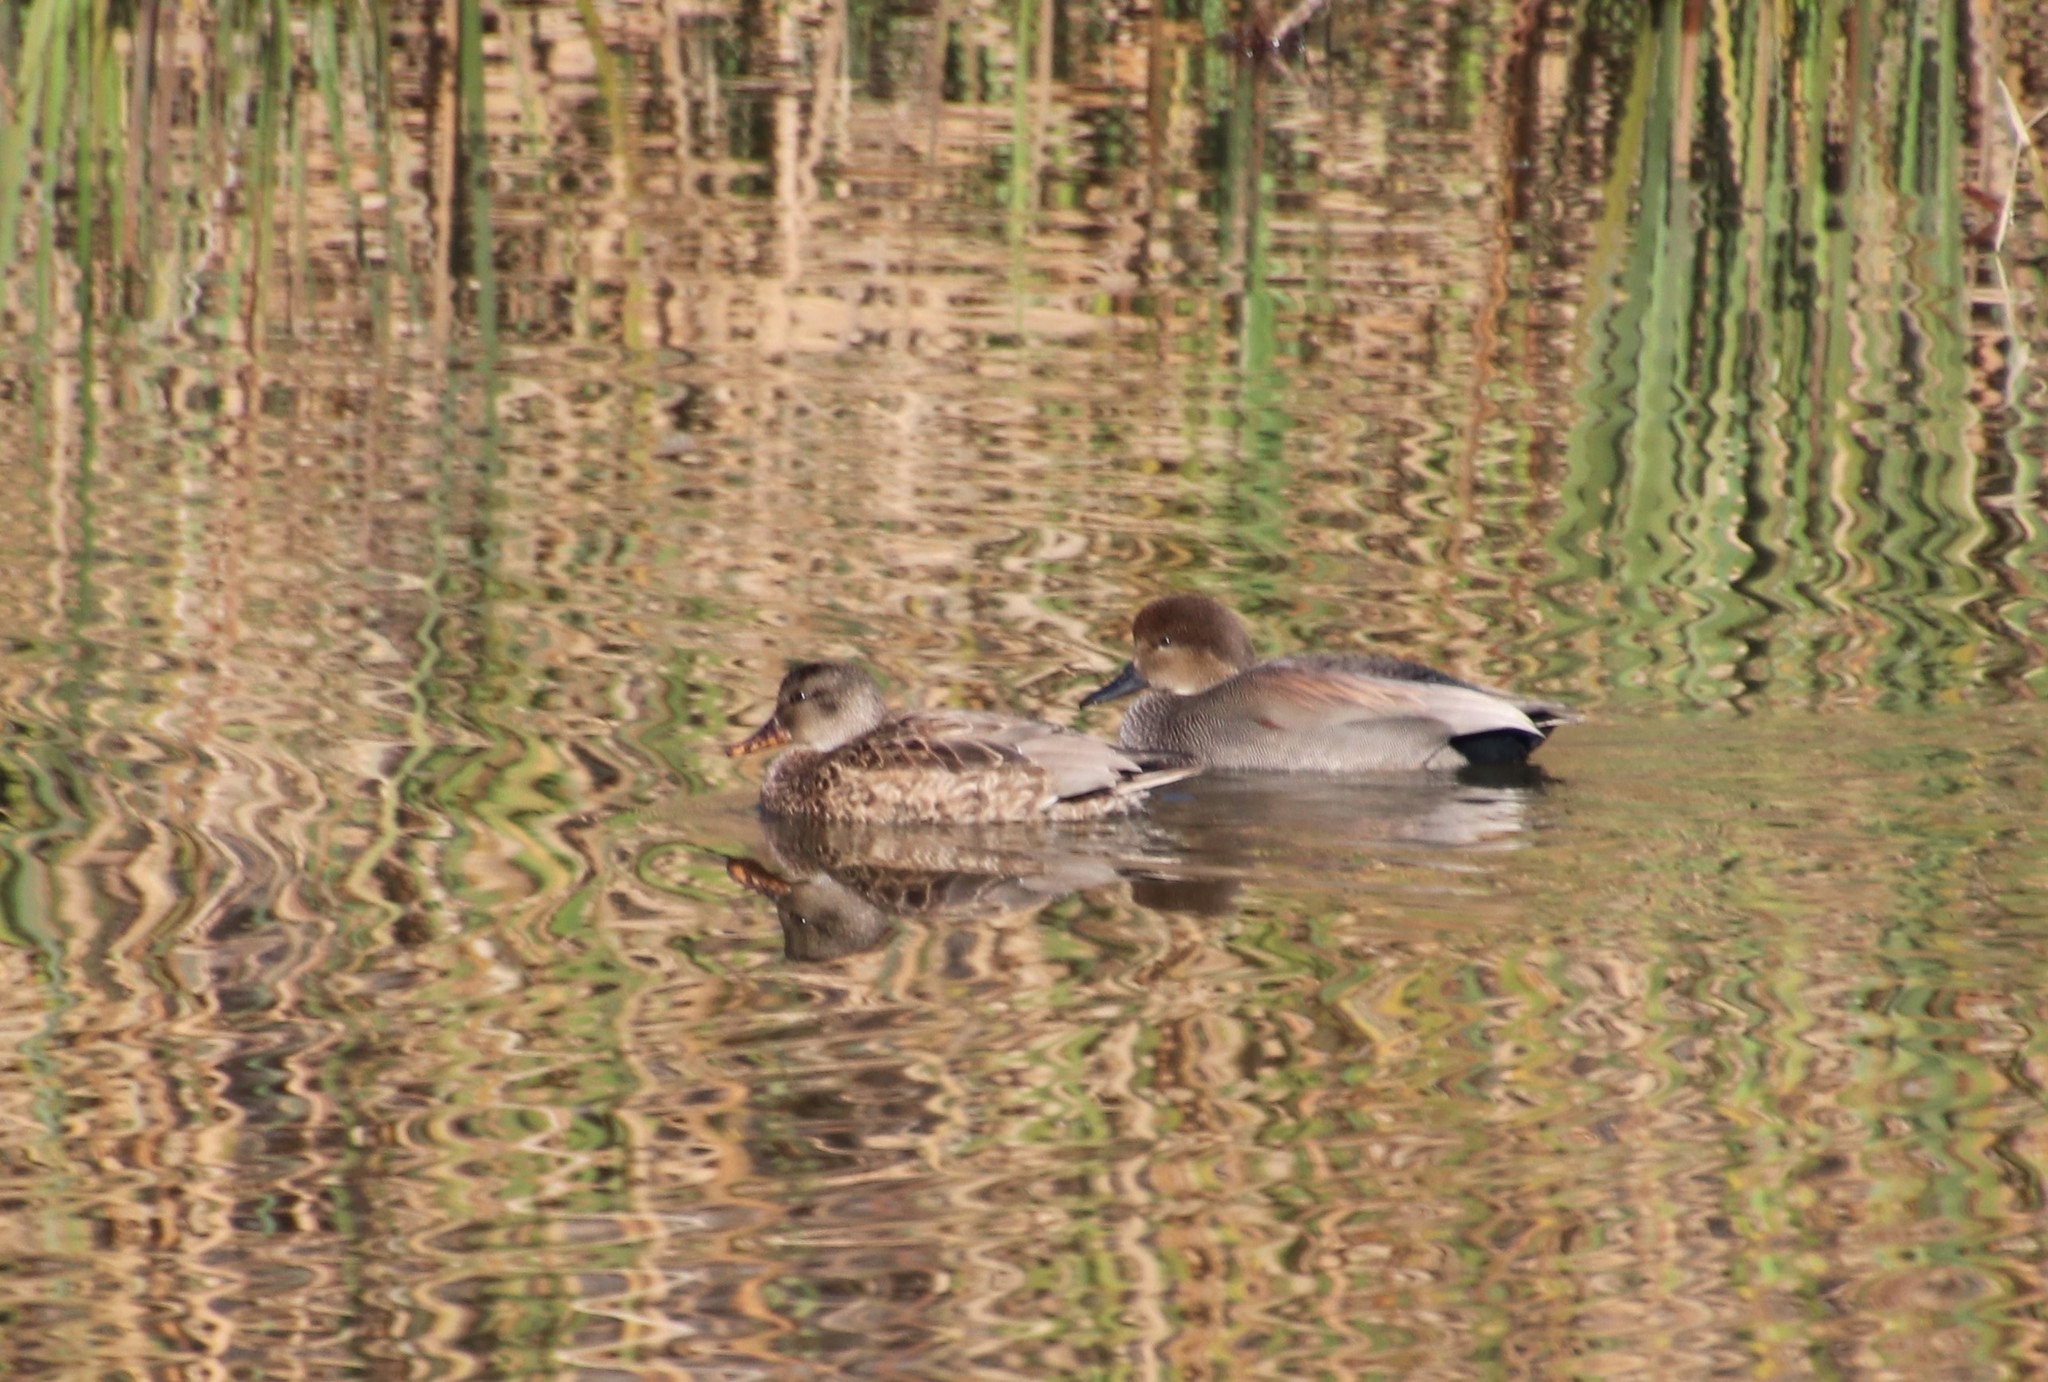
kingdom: Animalia
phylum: Chordata
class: Aves
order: Anseriformes
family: Anatidae
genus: Mareca
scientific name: Mareca strepera
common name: Gadwall
